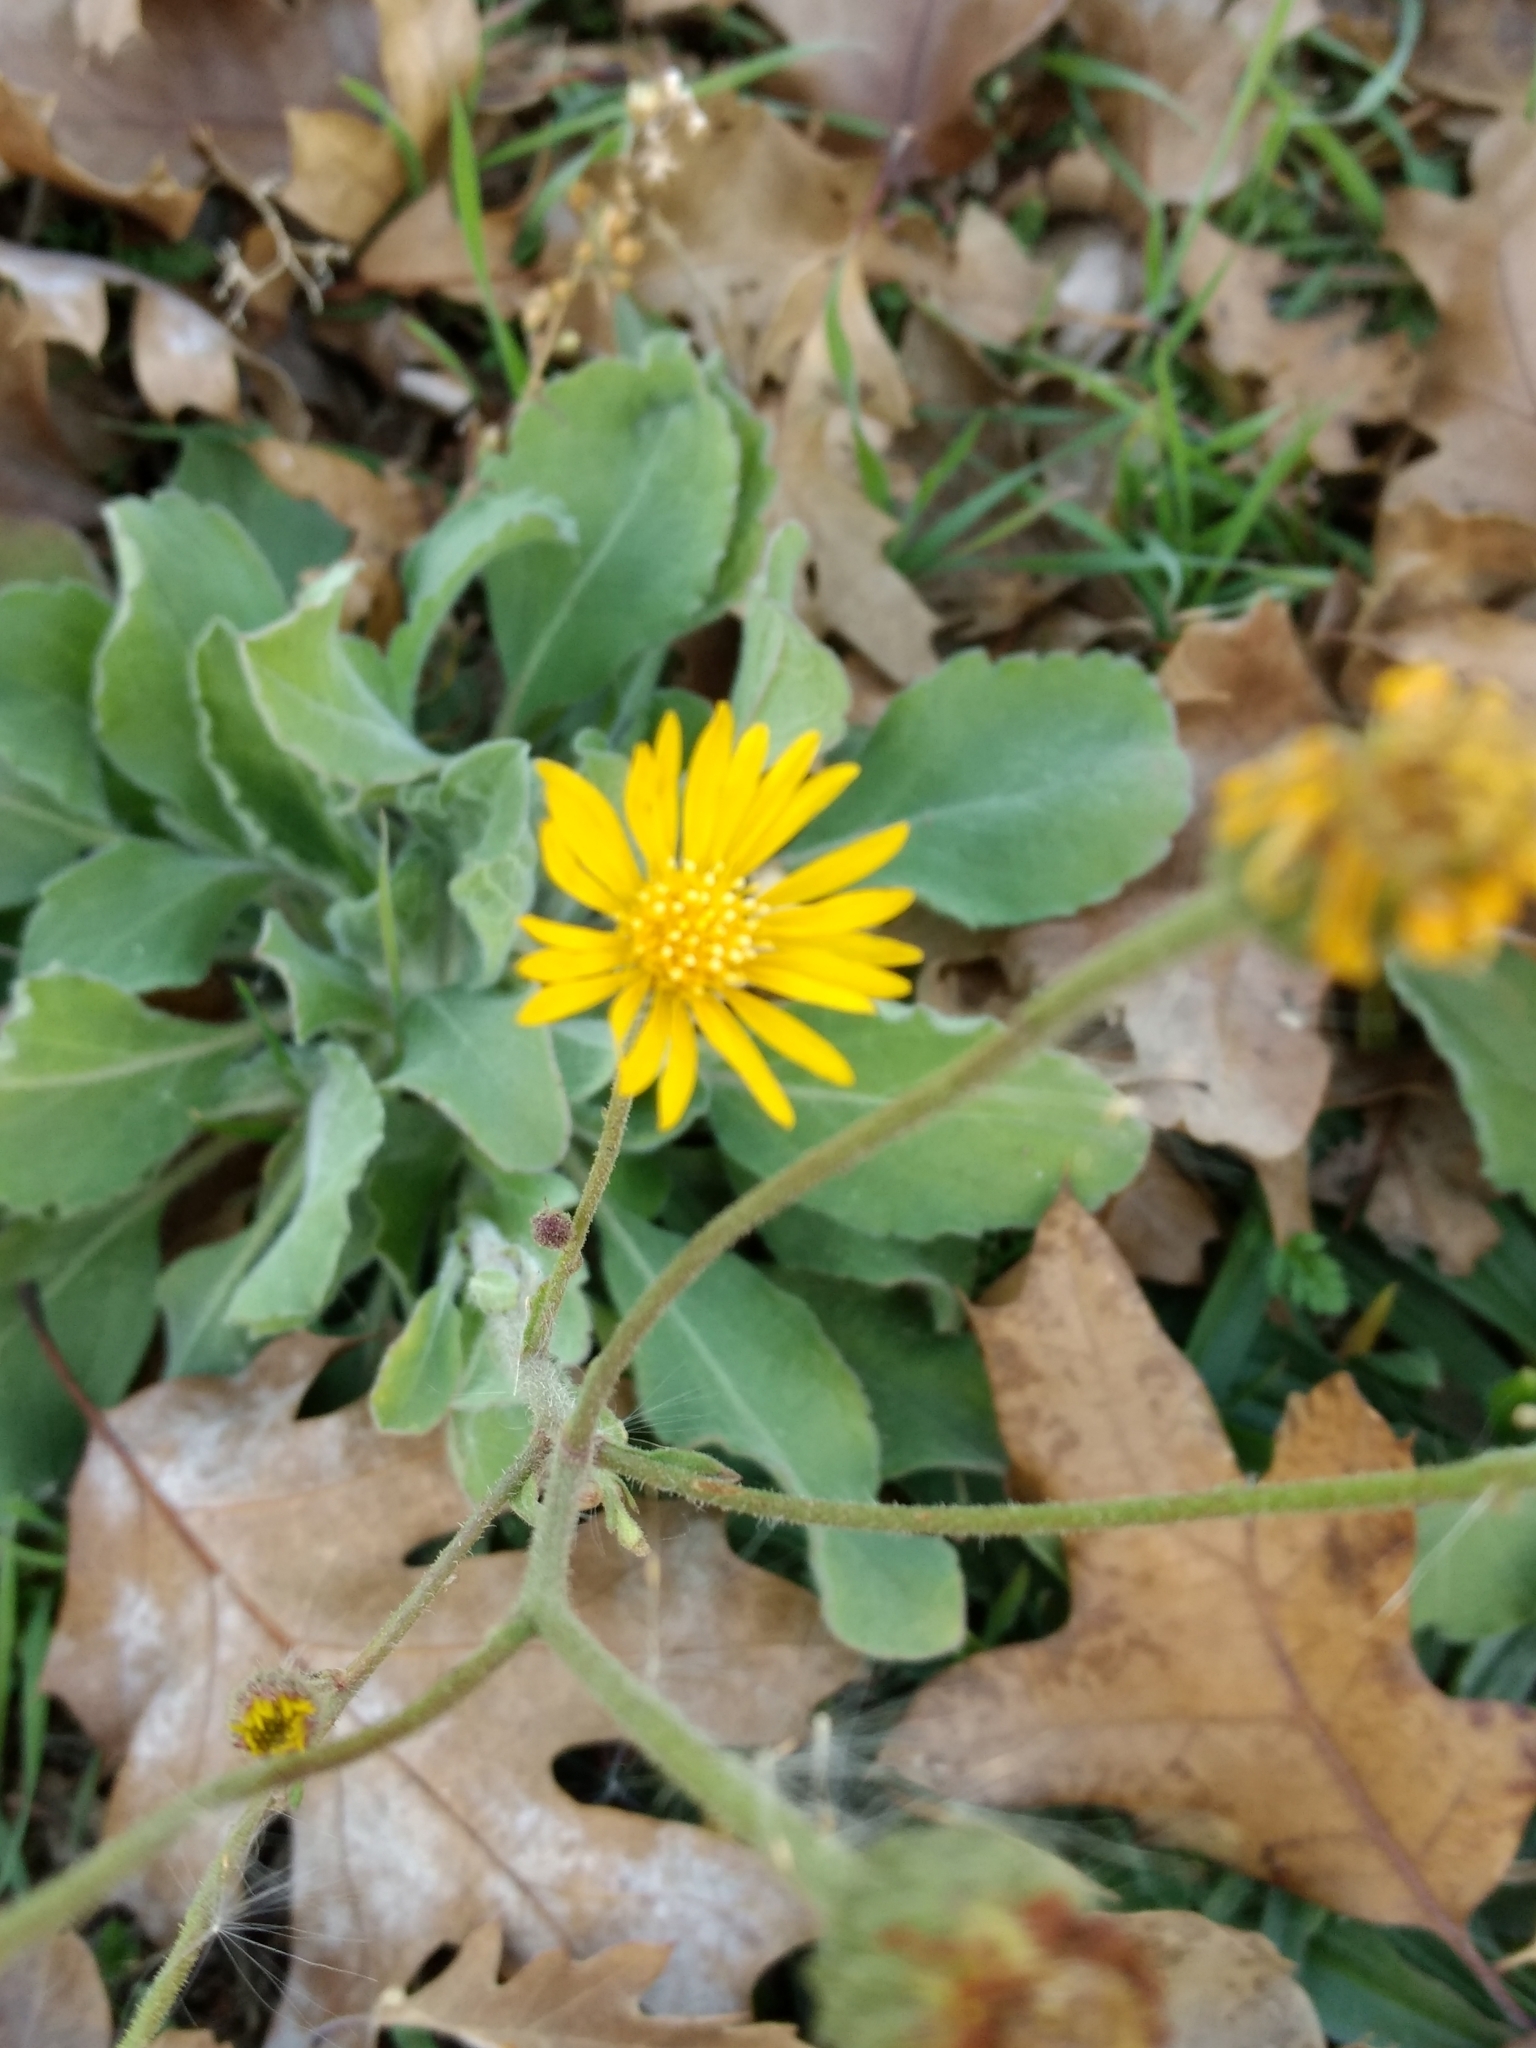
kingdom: Plantae
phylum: Tracheophyta
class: Magnoliopsida
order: Asterales
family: Asteraceae
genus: Heterotheca
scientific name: Heterotheca grandiflora
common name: Telegraphweed
